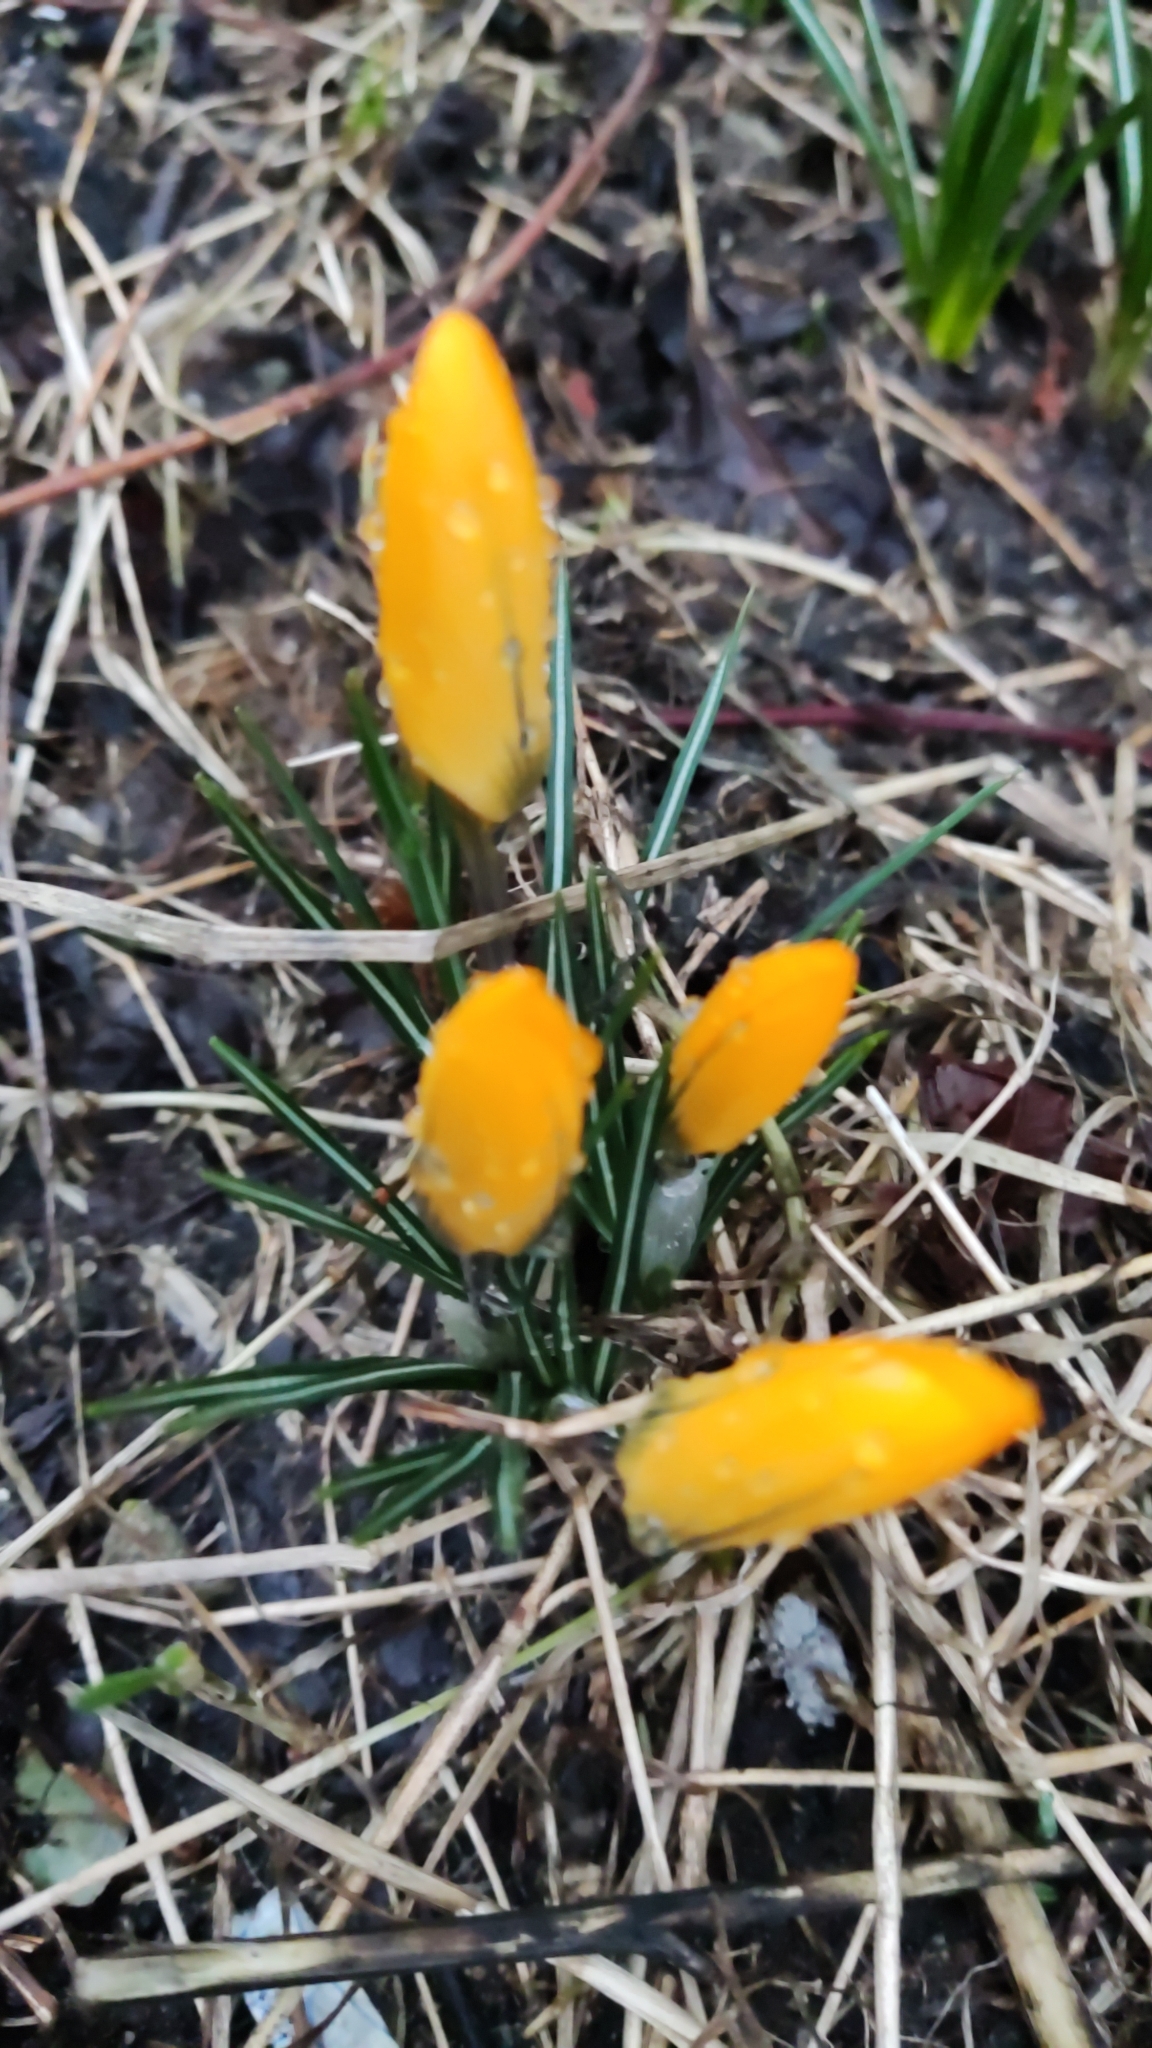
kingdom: Plantae
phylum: Tracheophyta
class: Liliopsida
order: Asparagales
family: Iridaceae
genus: Crocus
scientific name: Crocus luteus
